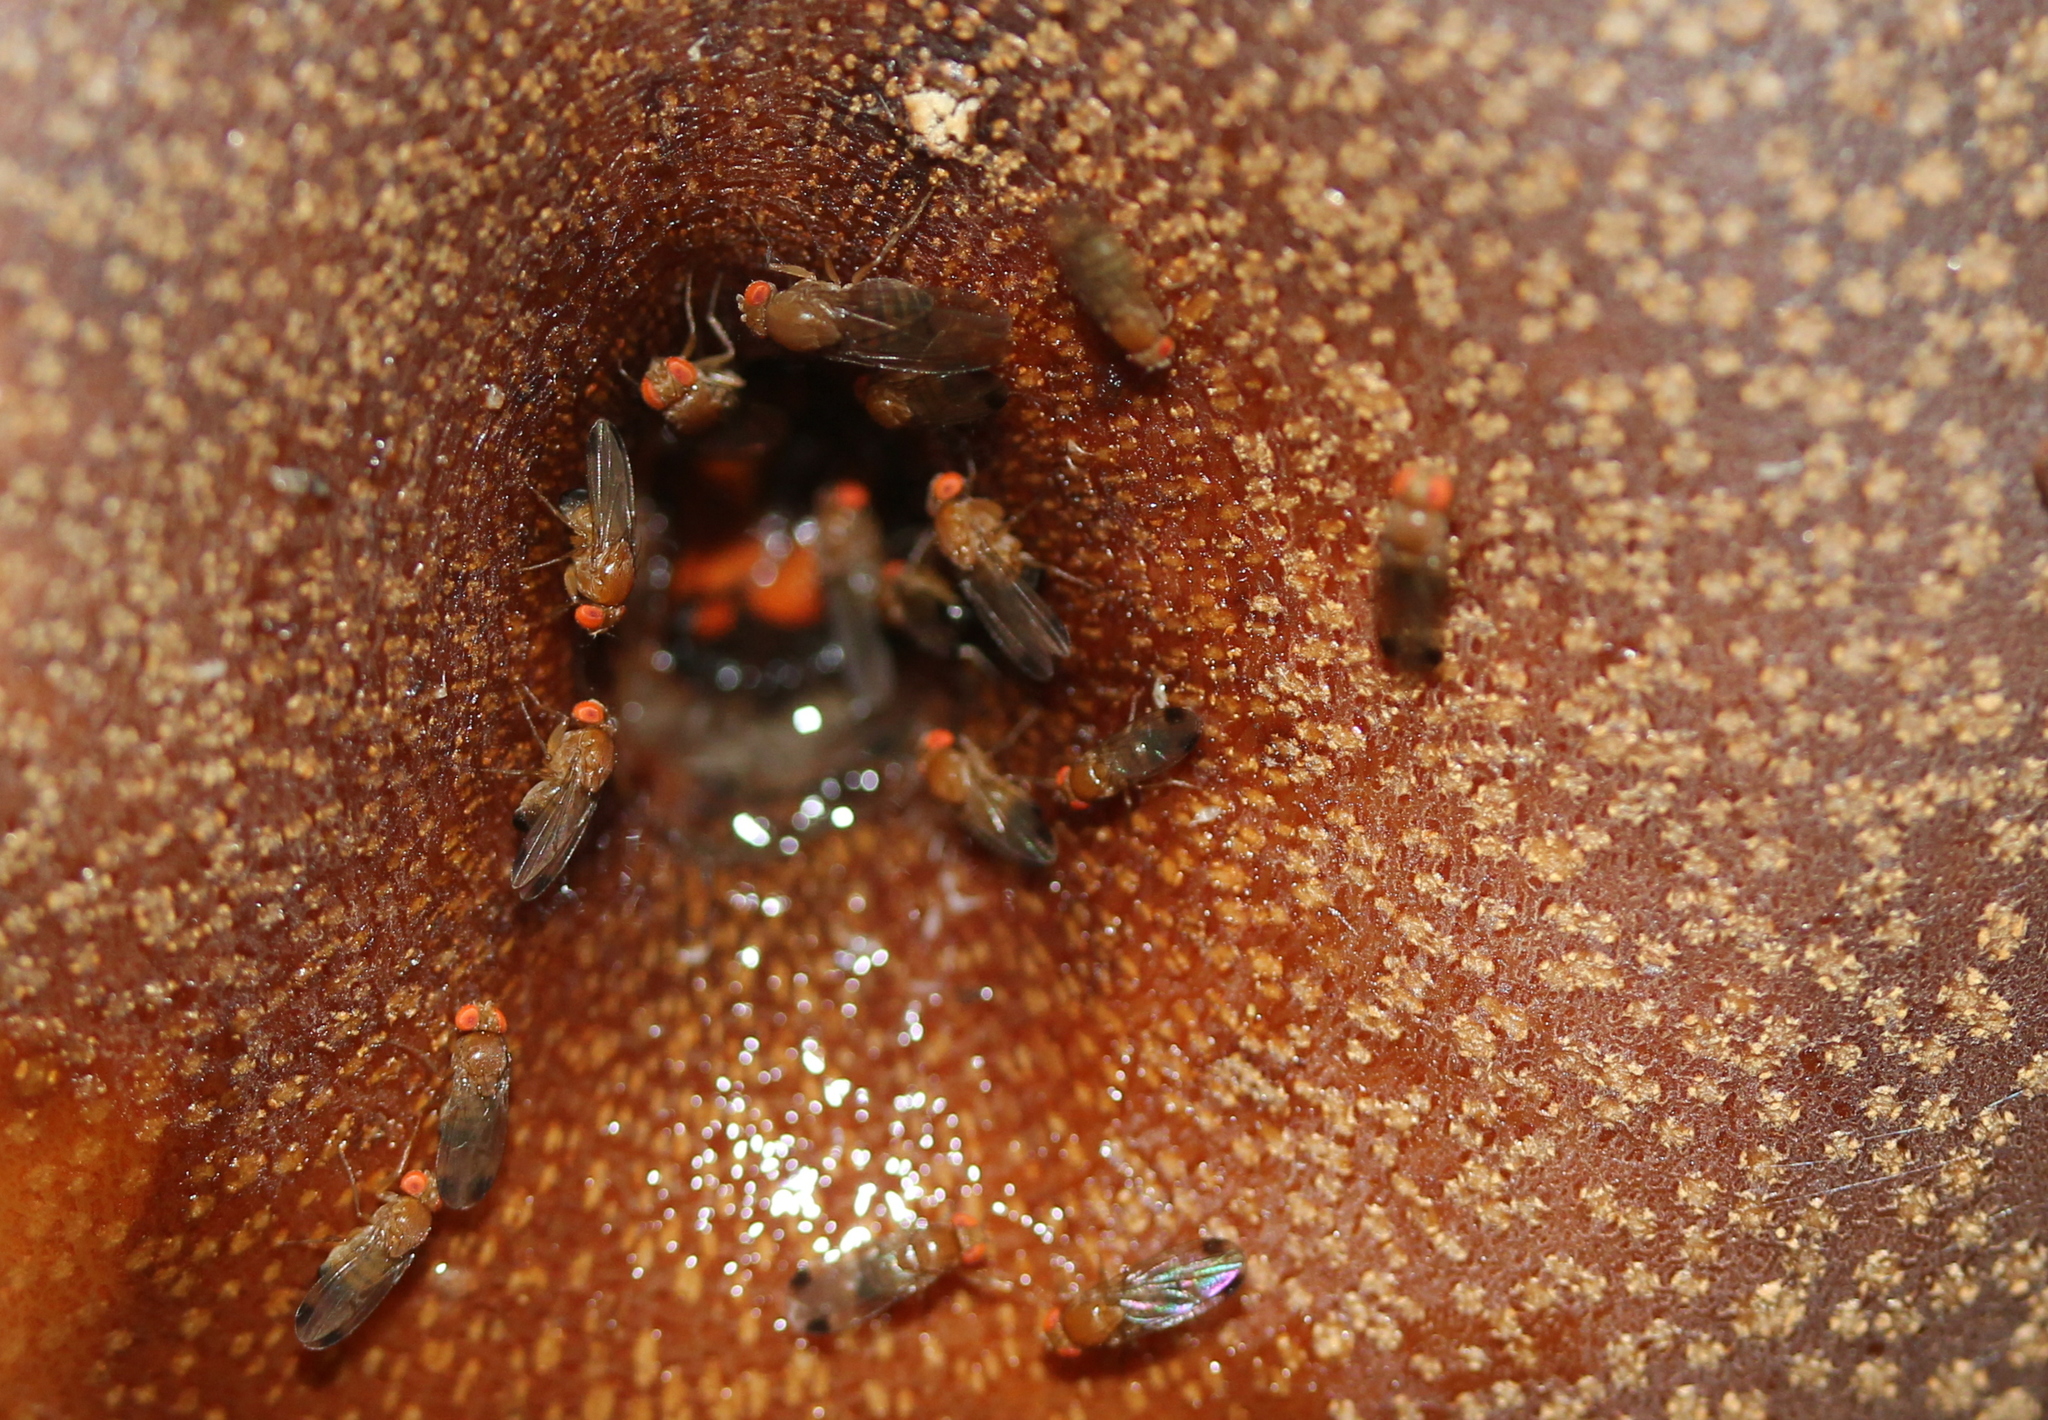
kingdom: Animalia
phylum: Arthropoda
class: Insecta
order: Diptera
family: Drosophilidae
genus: Drosophila
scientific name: Drosophila suzukii
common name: Spotted-wing drosophila
